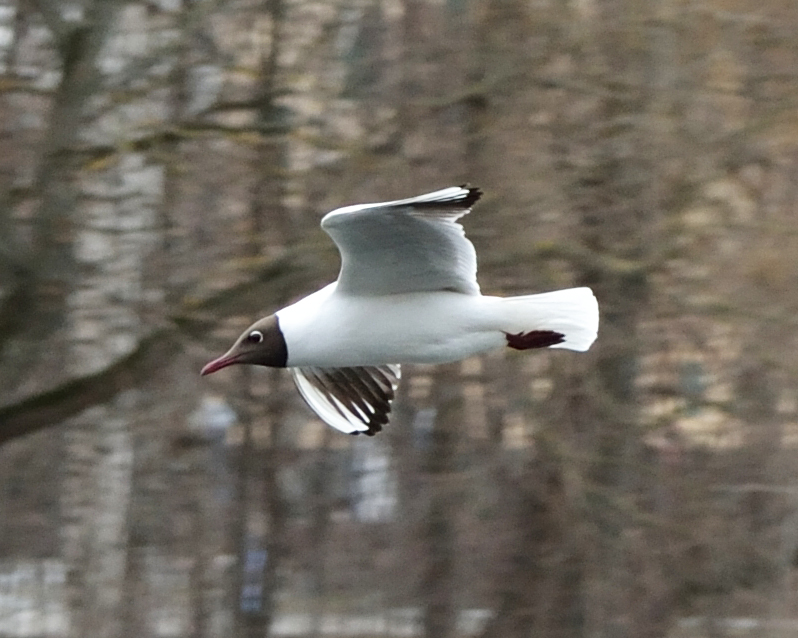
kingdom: Animalia
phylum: Chordata
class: Aves
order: Charadriiformes
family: Laridae
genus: Chroicocephalus
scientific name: Chroicocephalus ridibundus
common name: Black-headed gull
